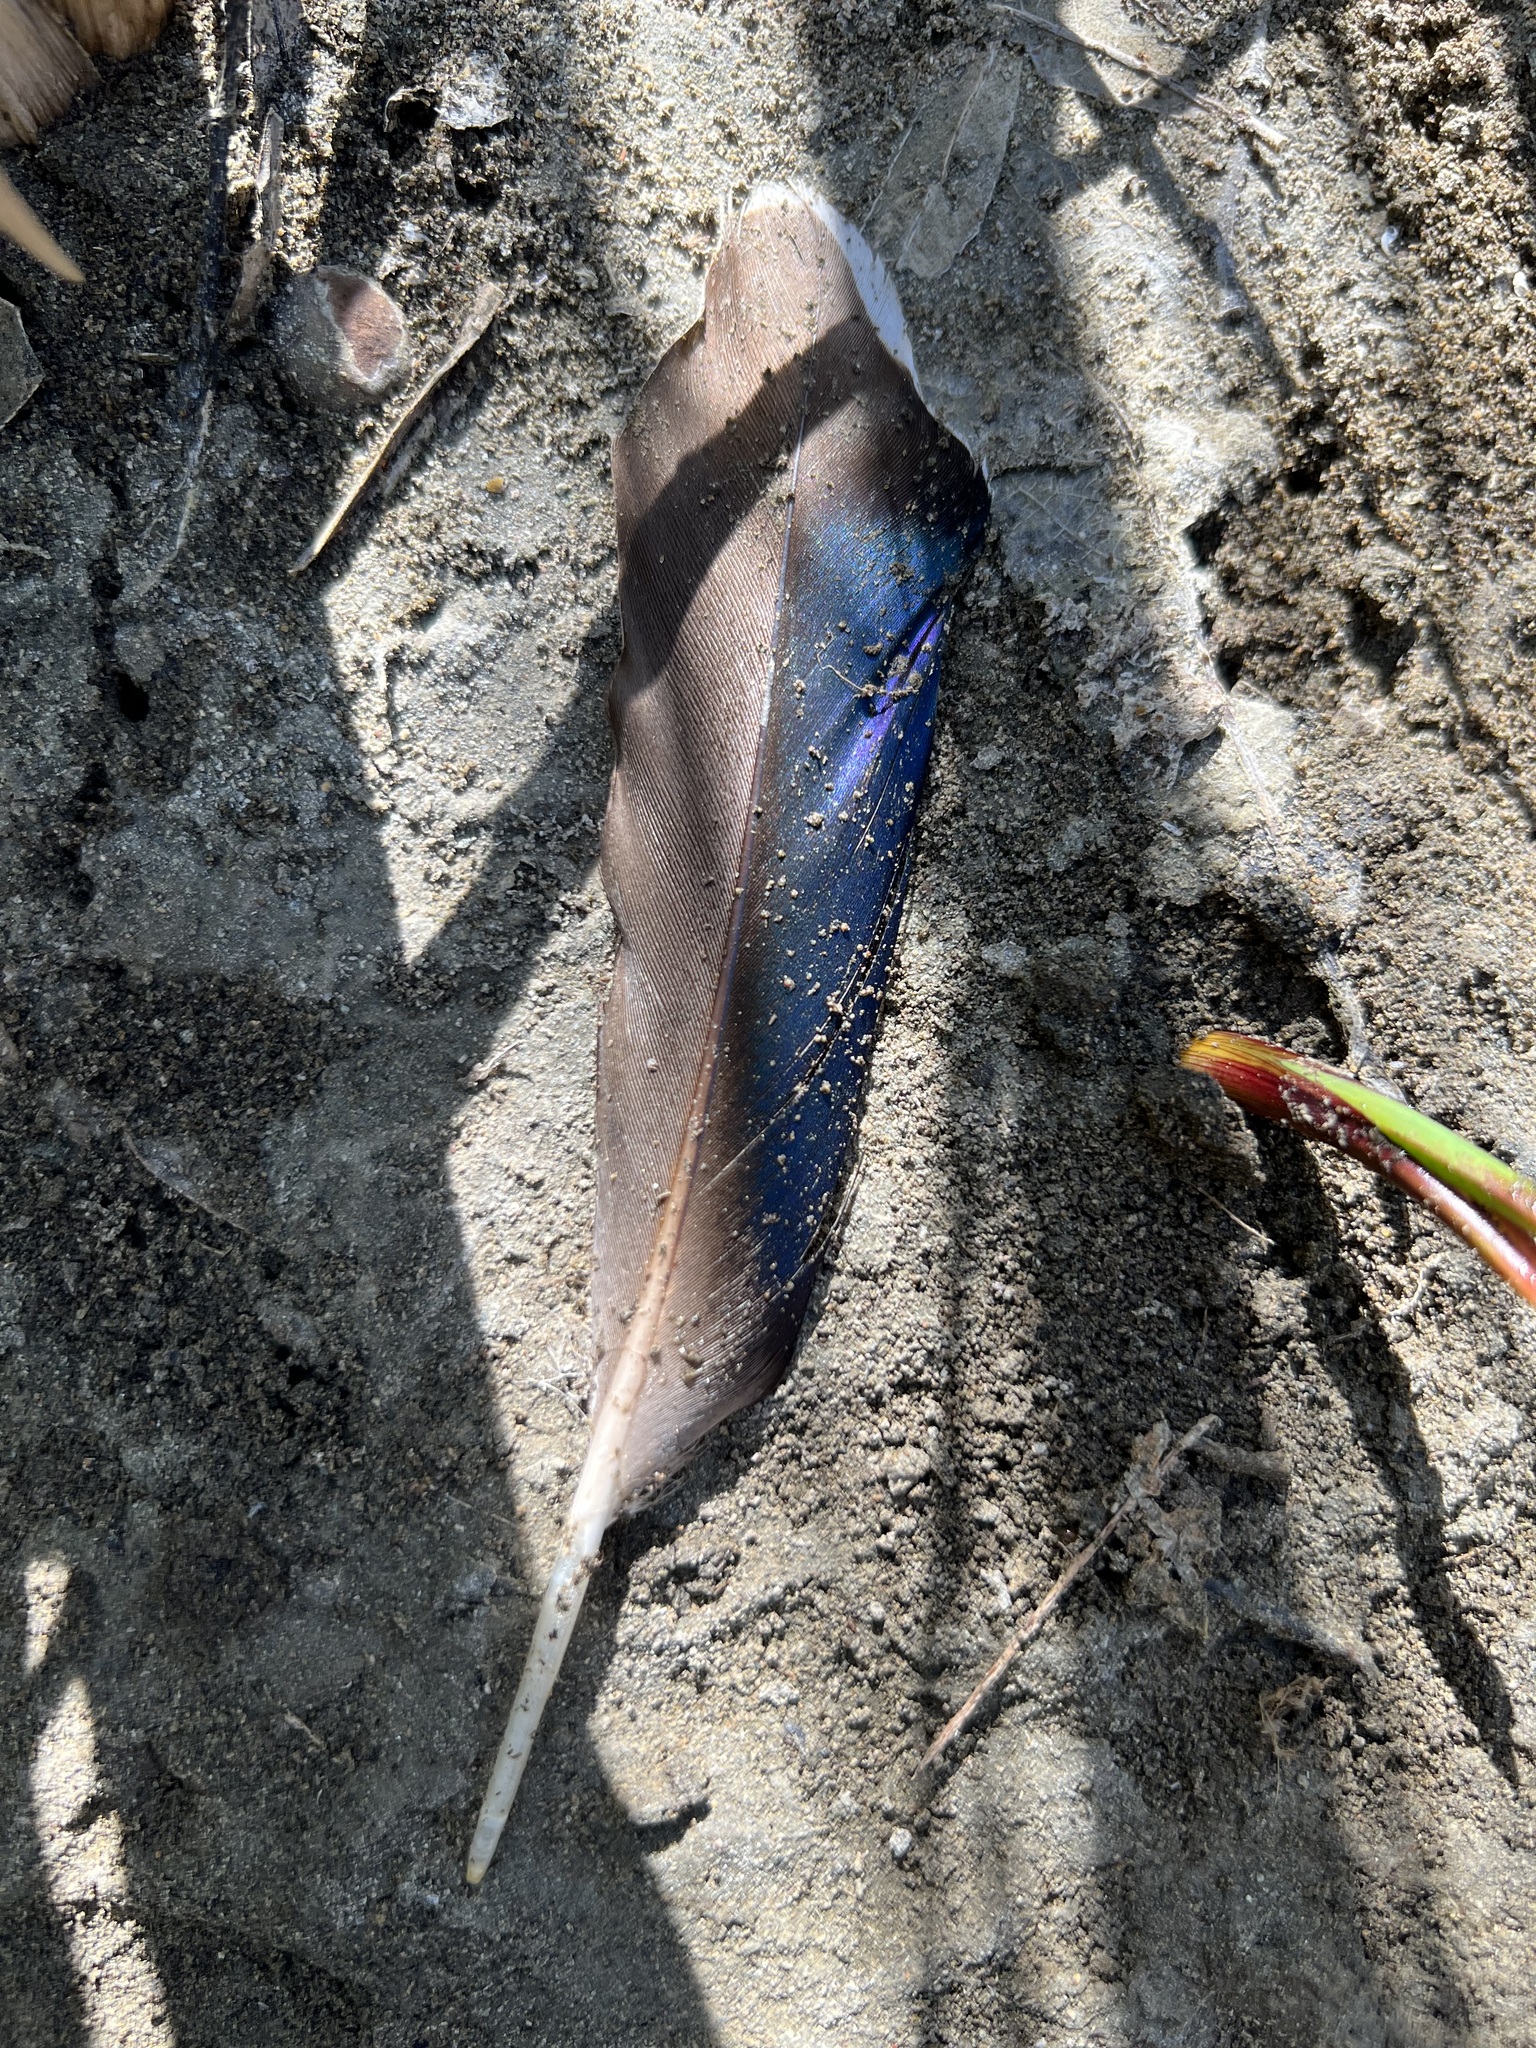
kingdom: Animalia
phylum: Chordata
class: Aves
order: Anseriformes
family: Anatidae
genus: Anas
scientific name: Anas platyrhynchos
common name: Mallard
